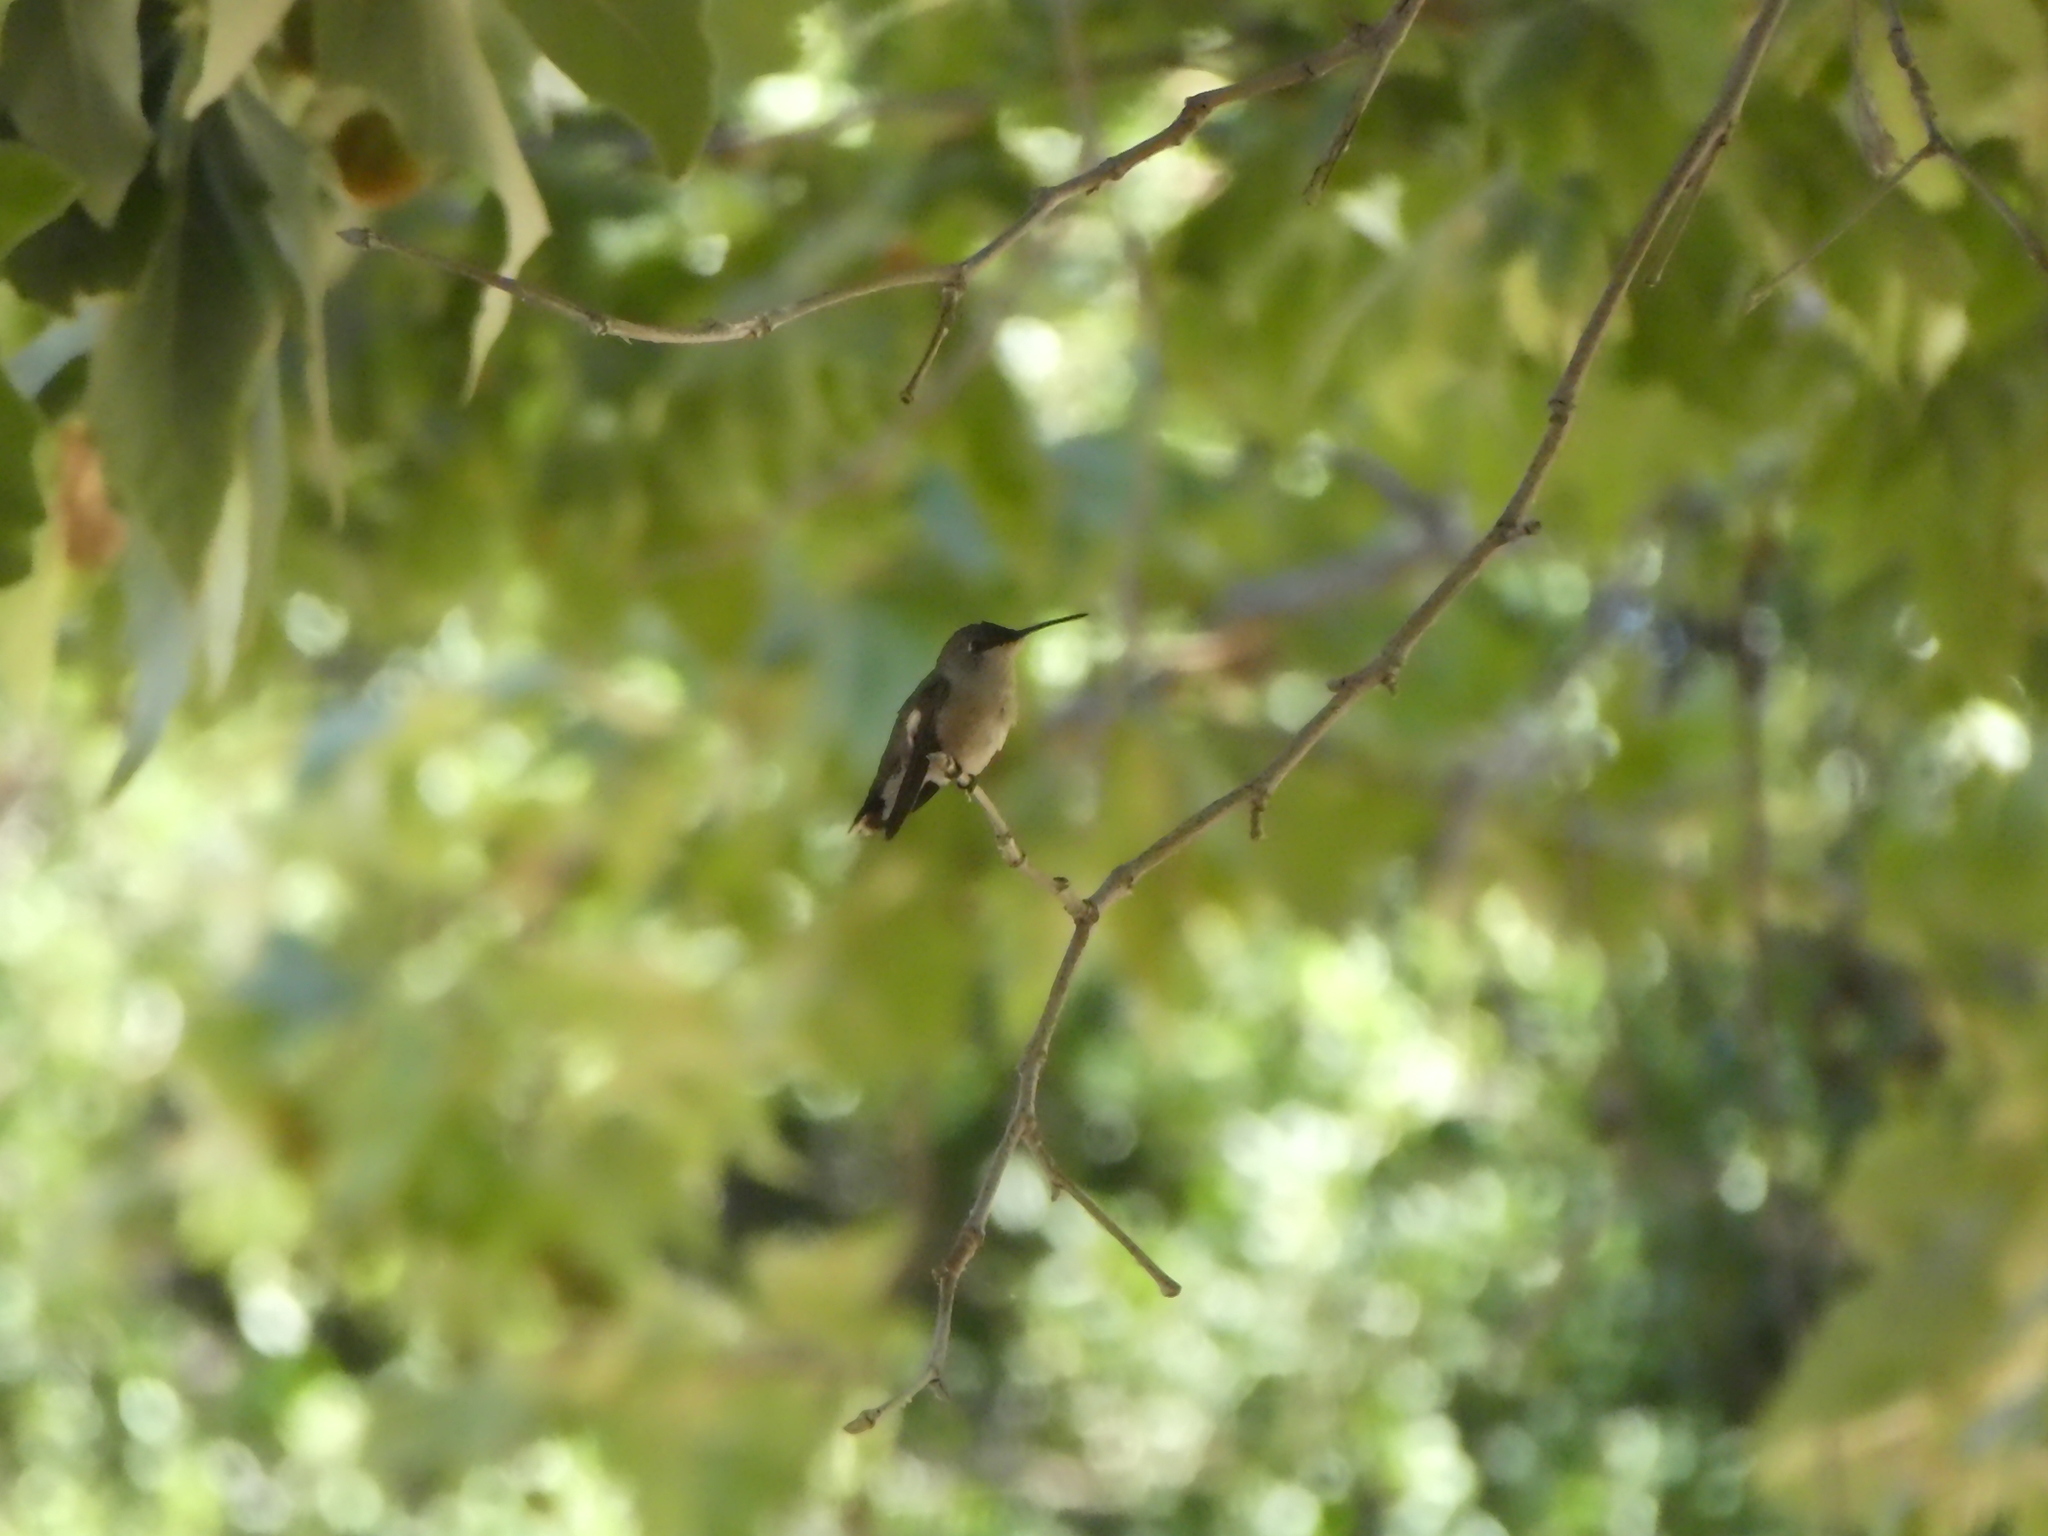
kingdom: Animalia
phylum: Chordata
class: Aves
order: Apodiformes
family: Trochilidae
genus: Archilochus
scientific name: Archilochus alexandri
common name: Black-chinned hummingbird
